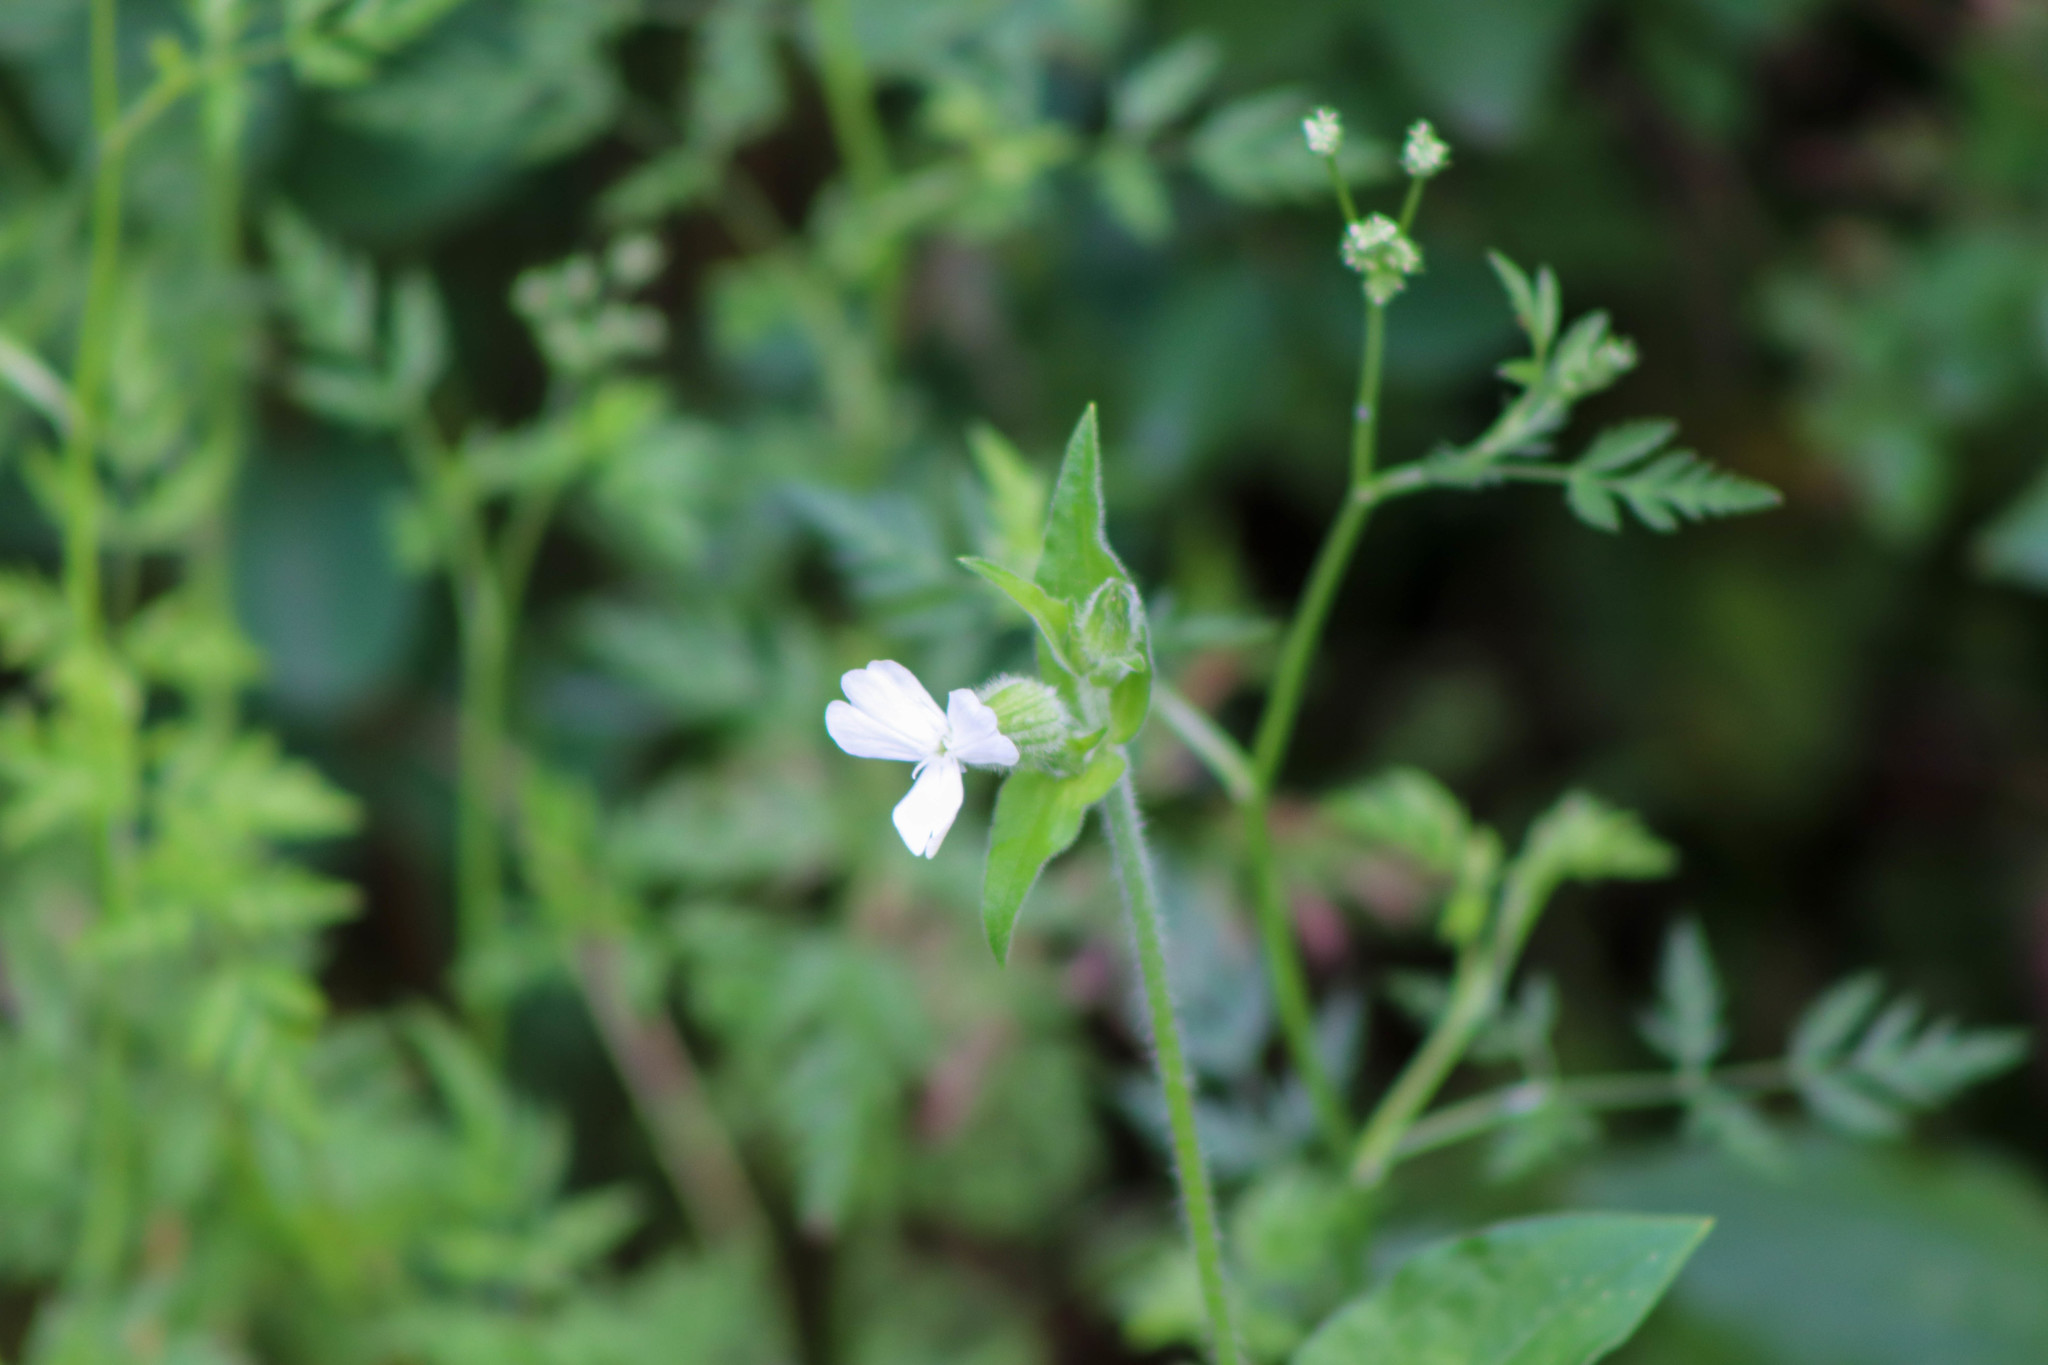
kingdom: Plantae
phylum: Tracheophyta
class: Magnoliopsida
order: Caryophyllales
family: Caryophyllaceae
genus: Silene
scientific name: Silene latifolia
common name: White campion
